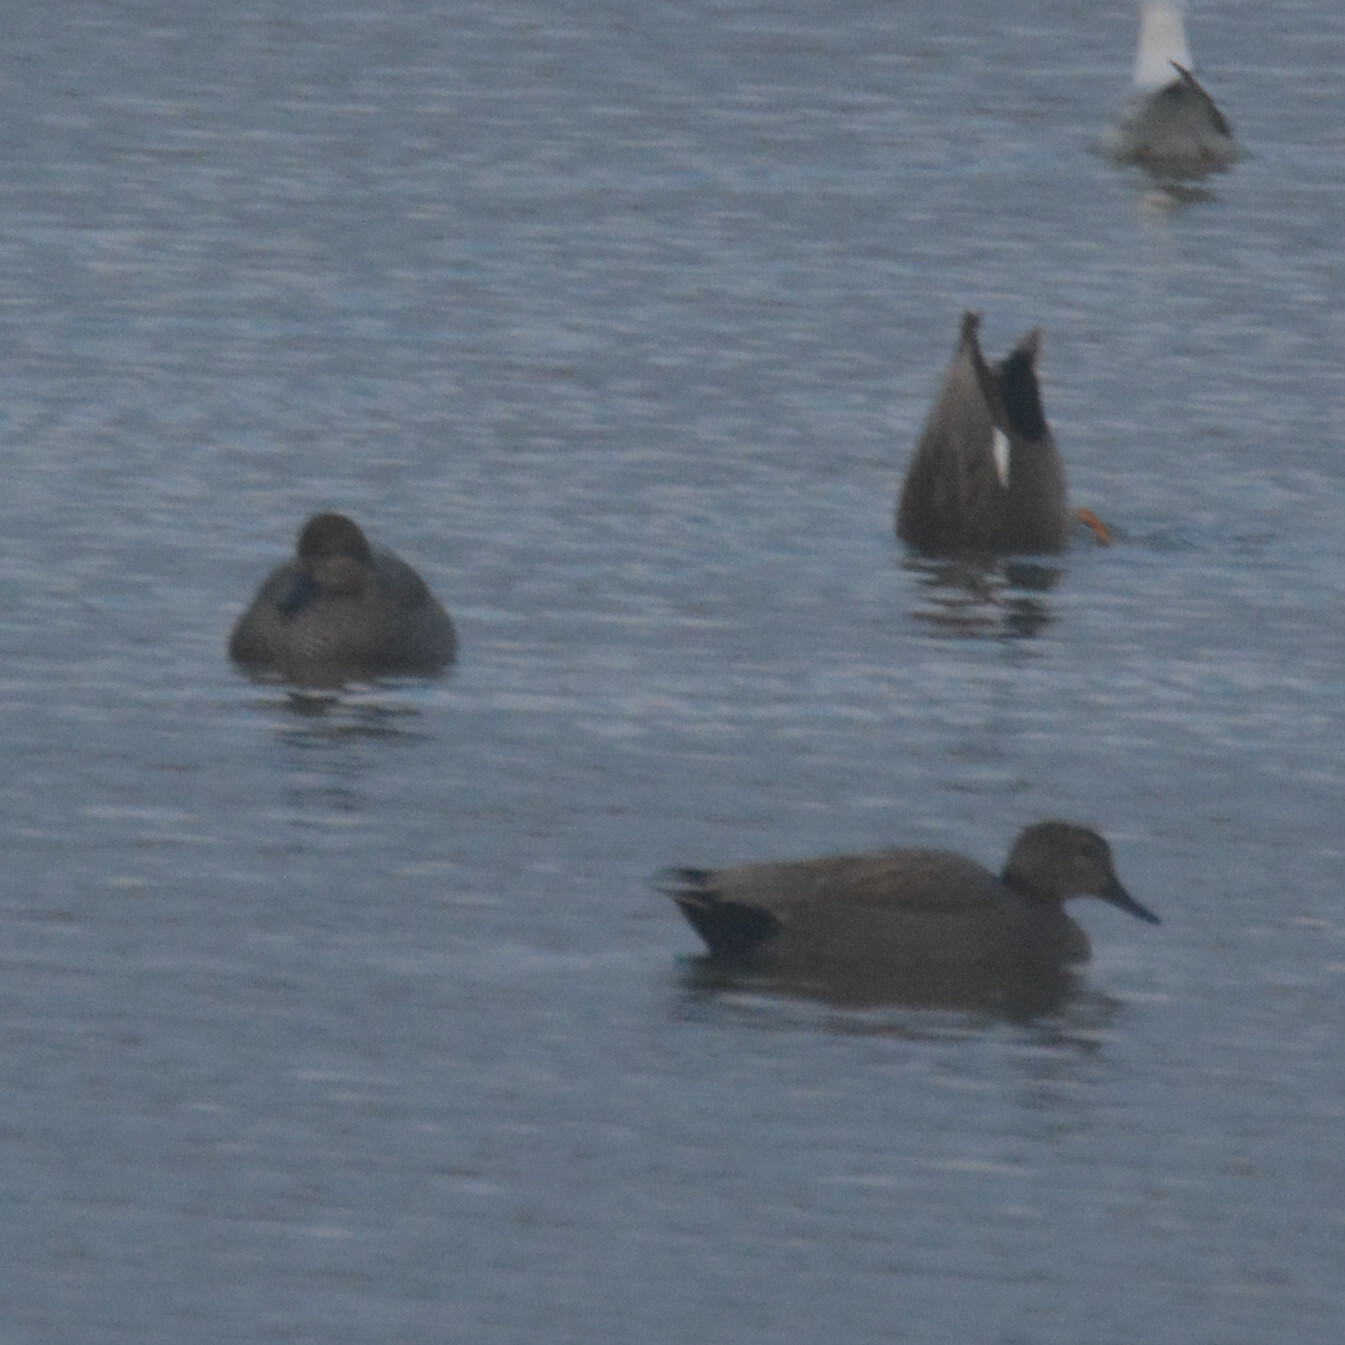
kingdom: Animalia
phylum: Chordata
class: Aves
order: Anseriformes
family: Anatidae
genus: Mareca
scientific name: Mareca strepera
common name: Gadwall
